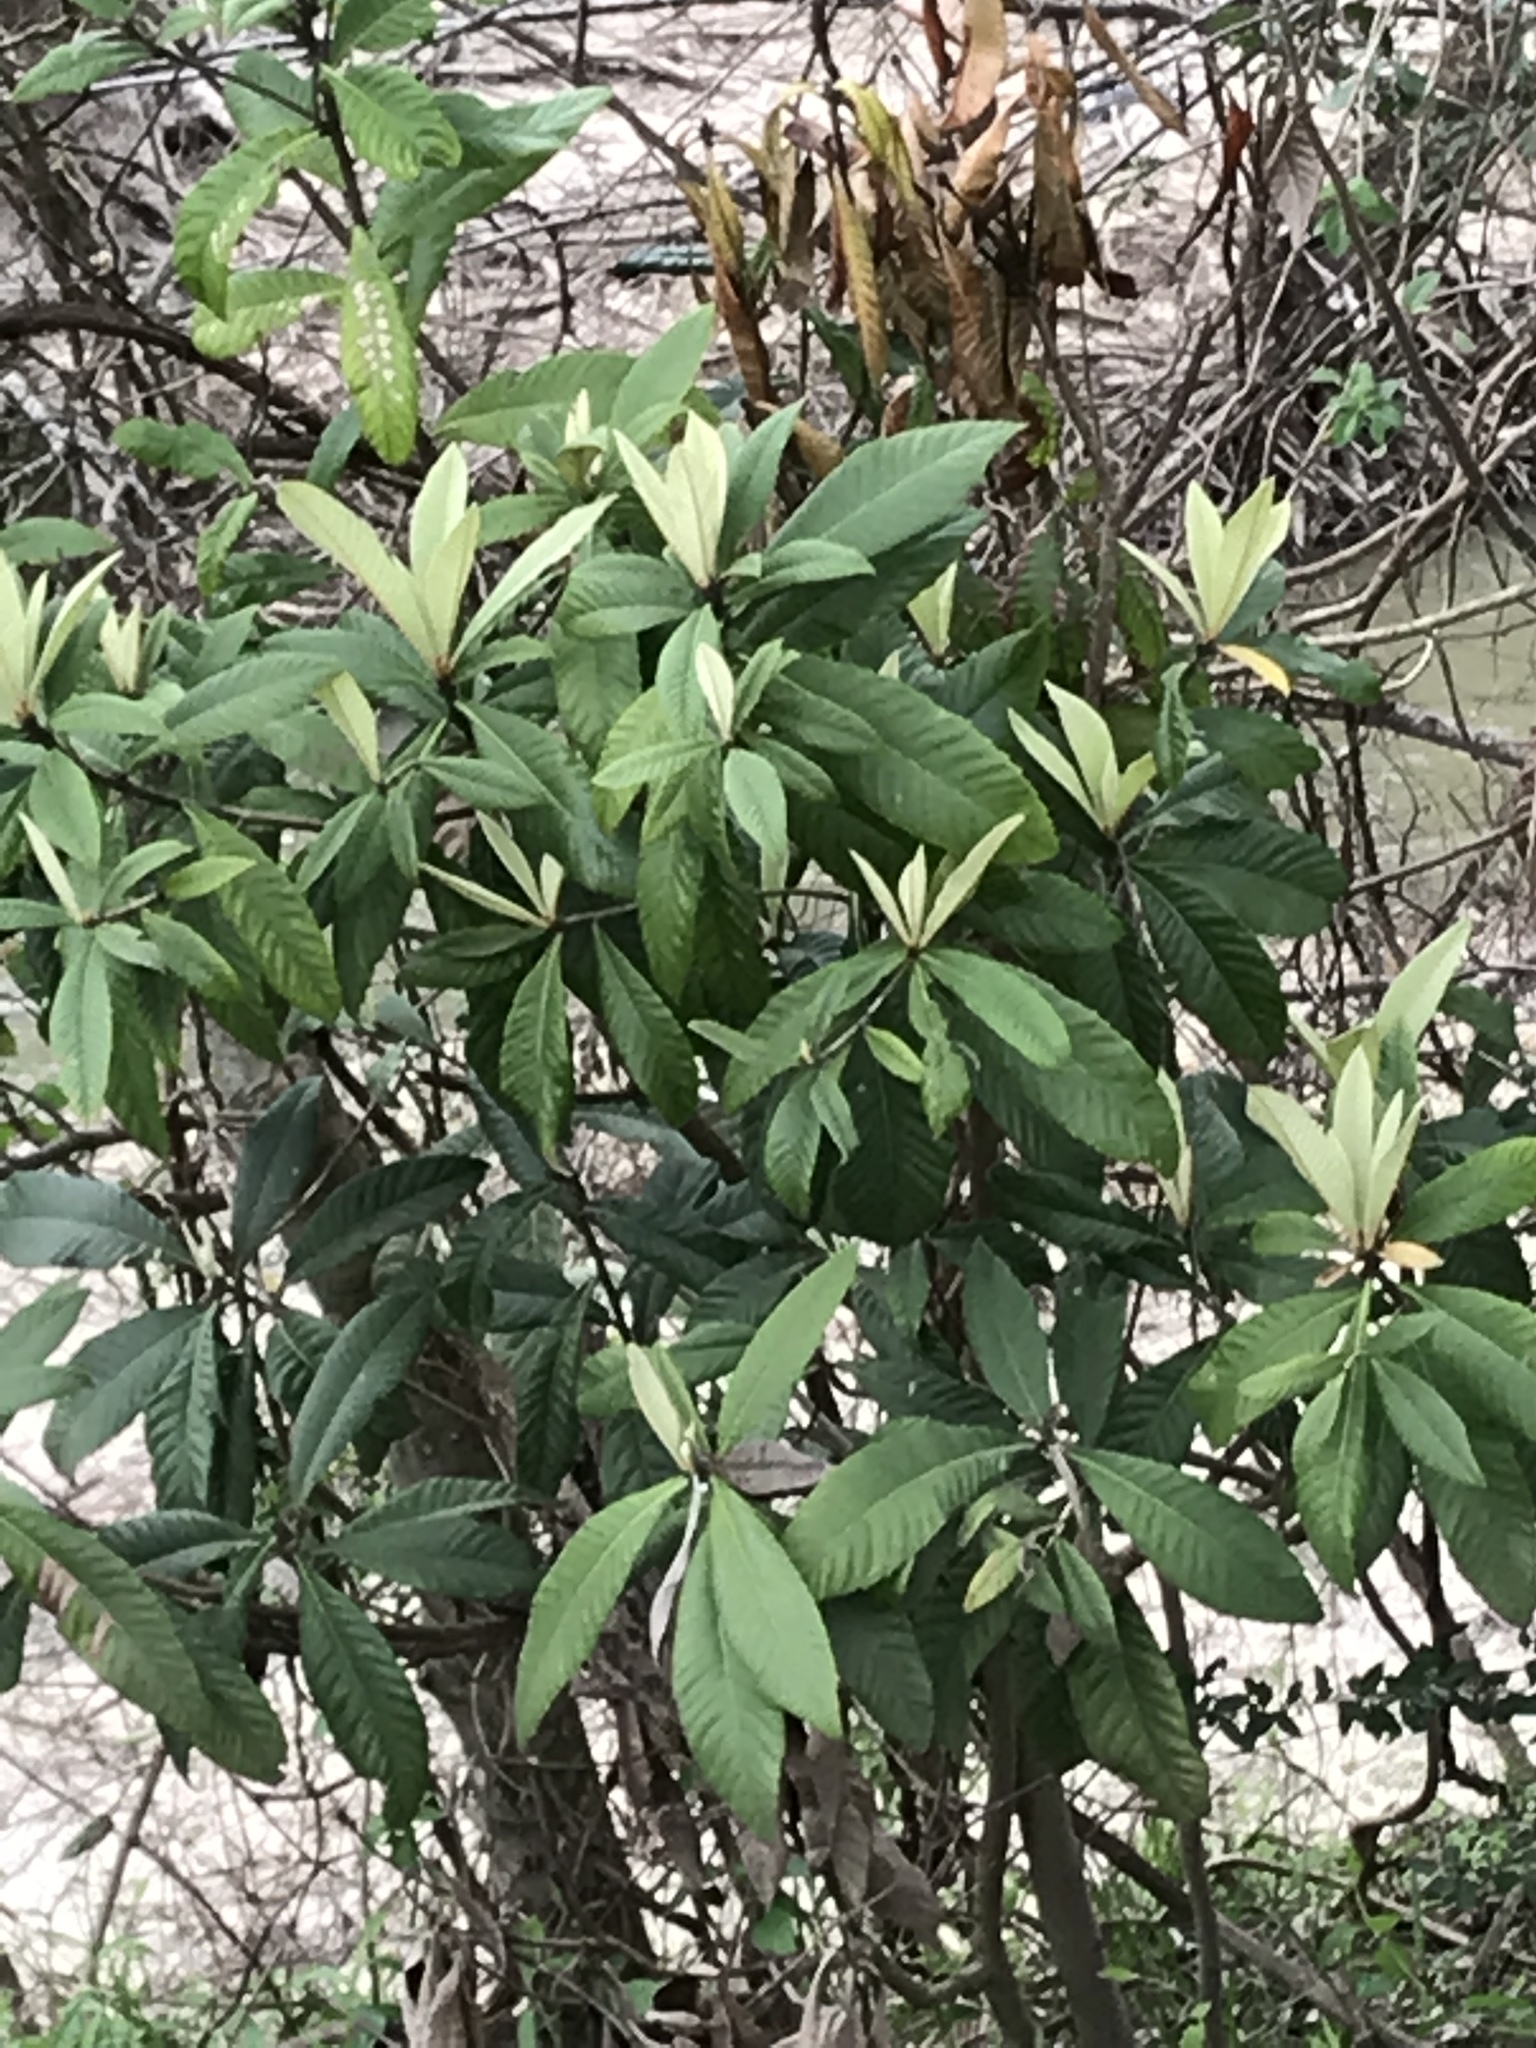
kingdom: Plantae
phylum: Tracheophyta
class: Magnoliopsida
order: Rosales
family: Rosaceae
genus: Rhaphiolepis
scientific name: Rhaphiolepis bibas
